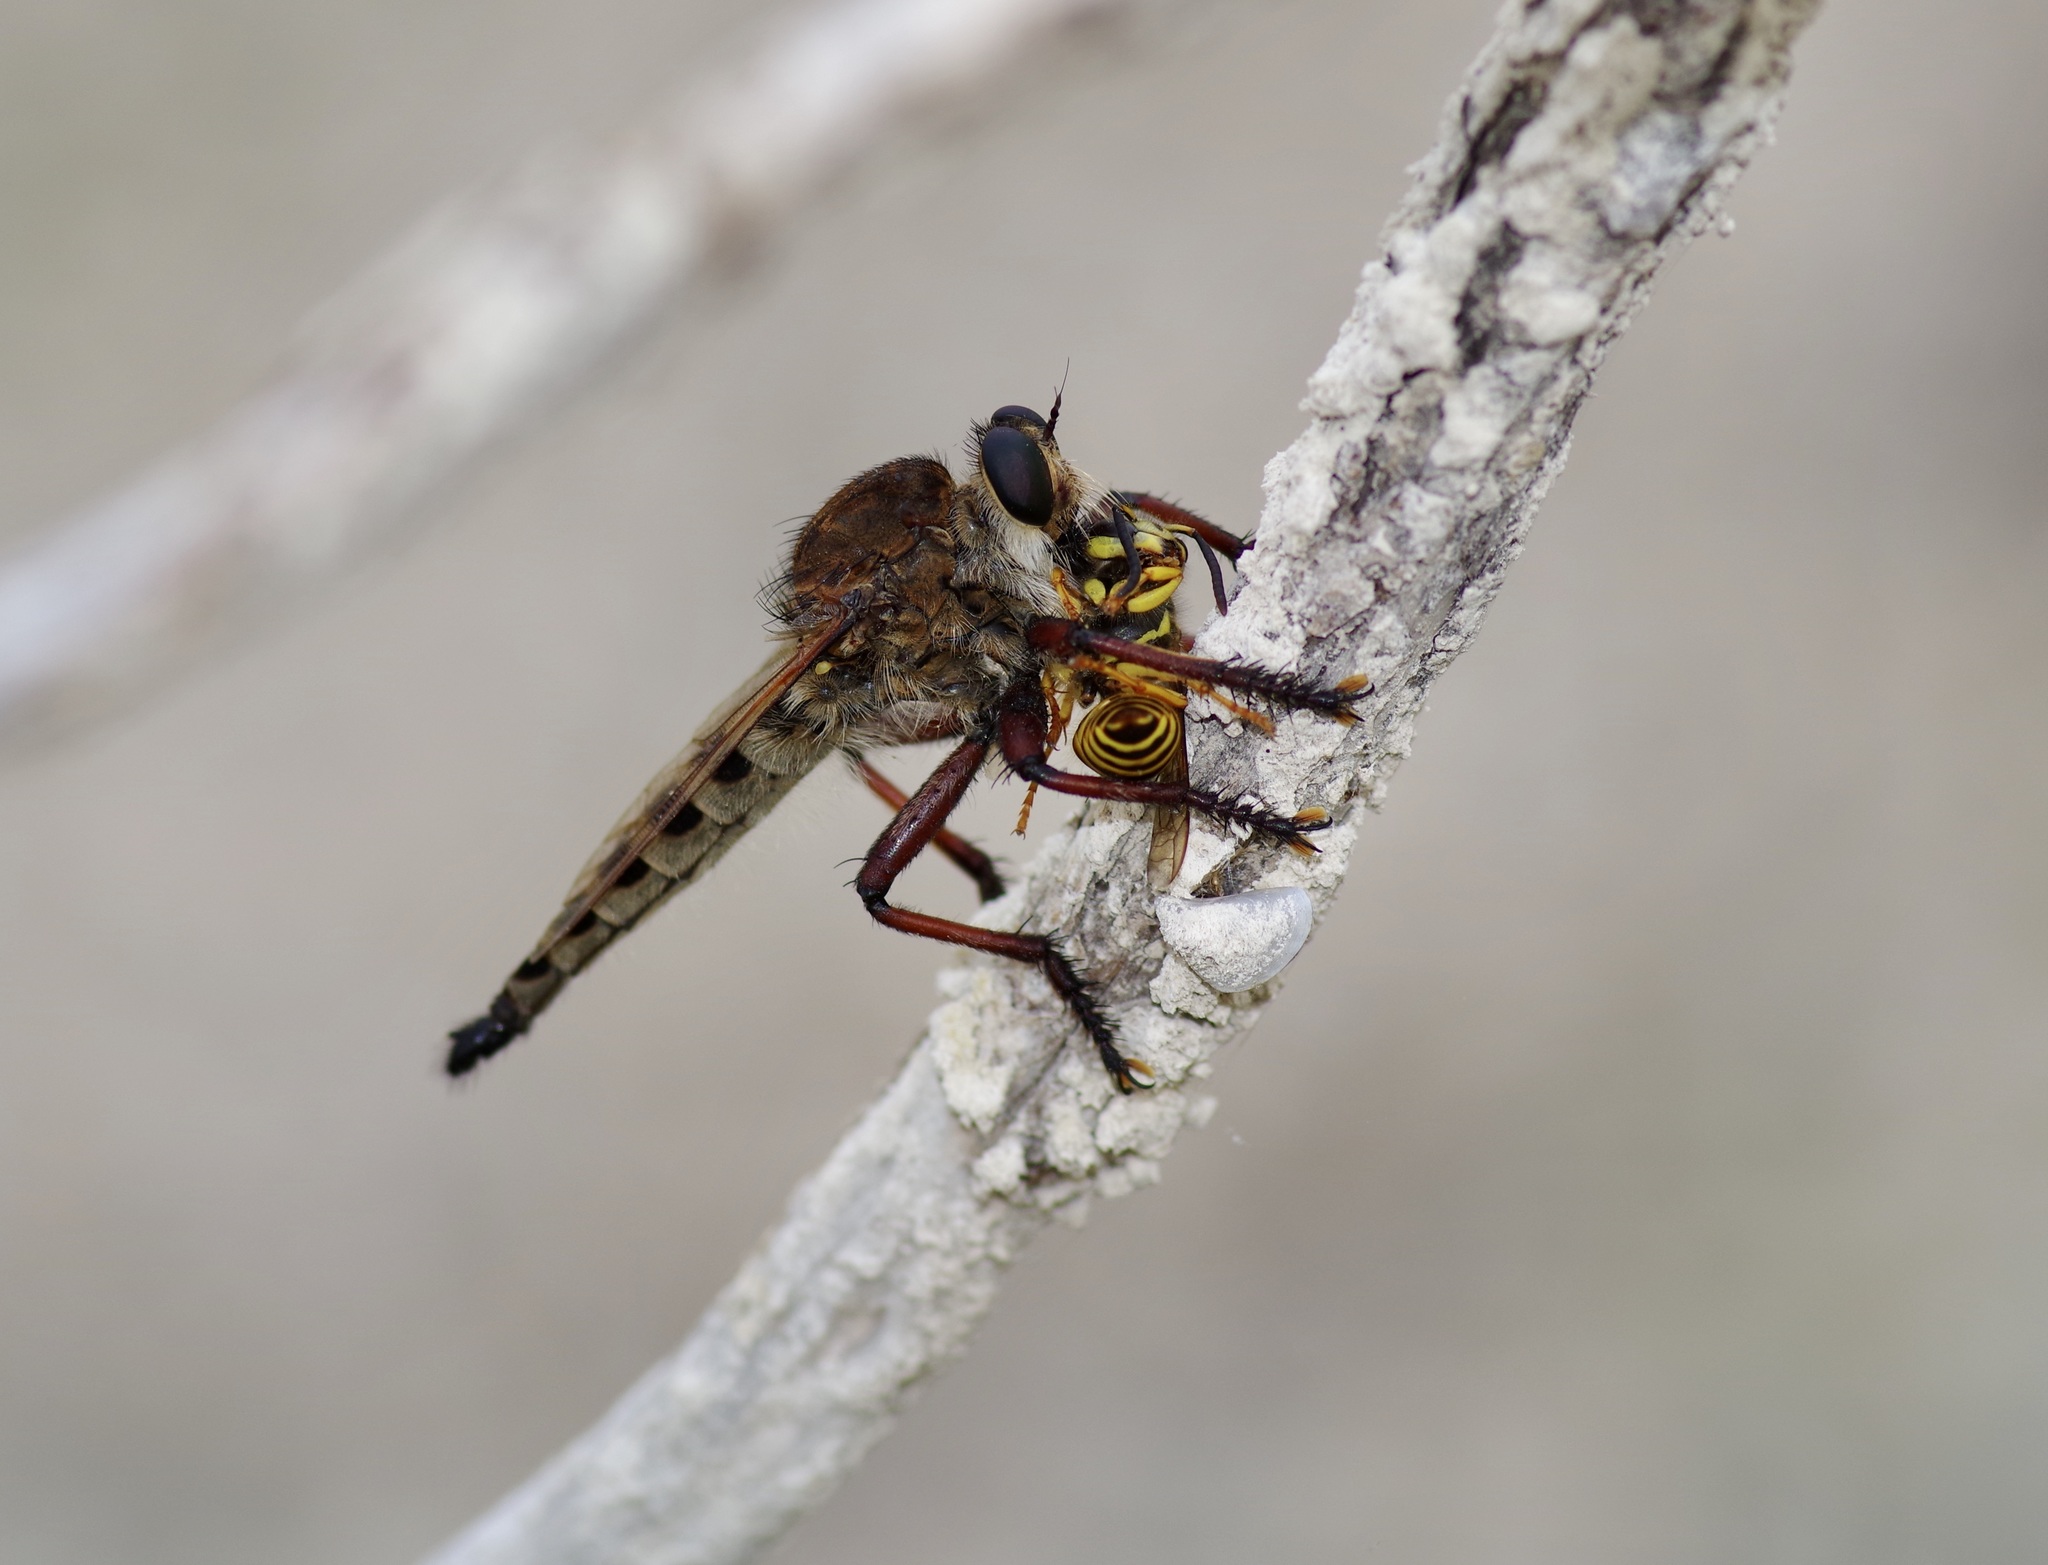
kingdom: Animalia
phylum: Arthropoda
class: Insecta
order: Diptera
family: Asilidae
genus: Promachus
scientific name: Promachus hinei
